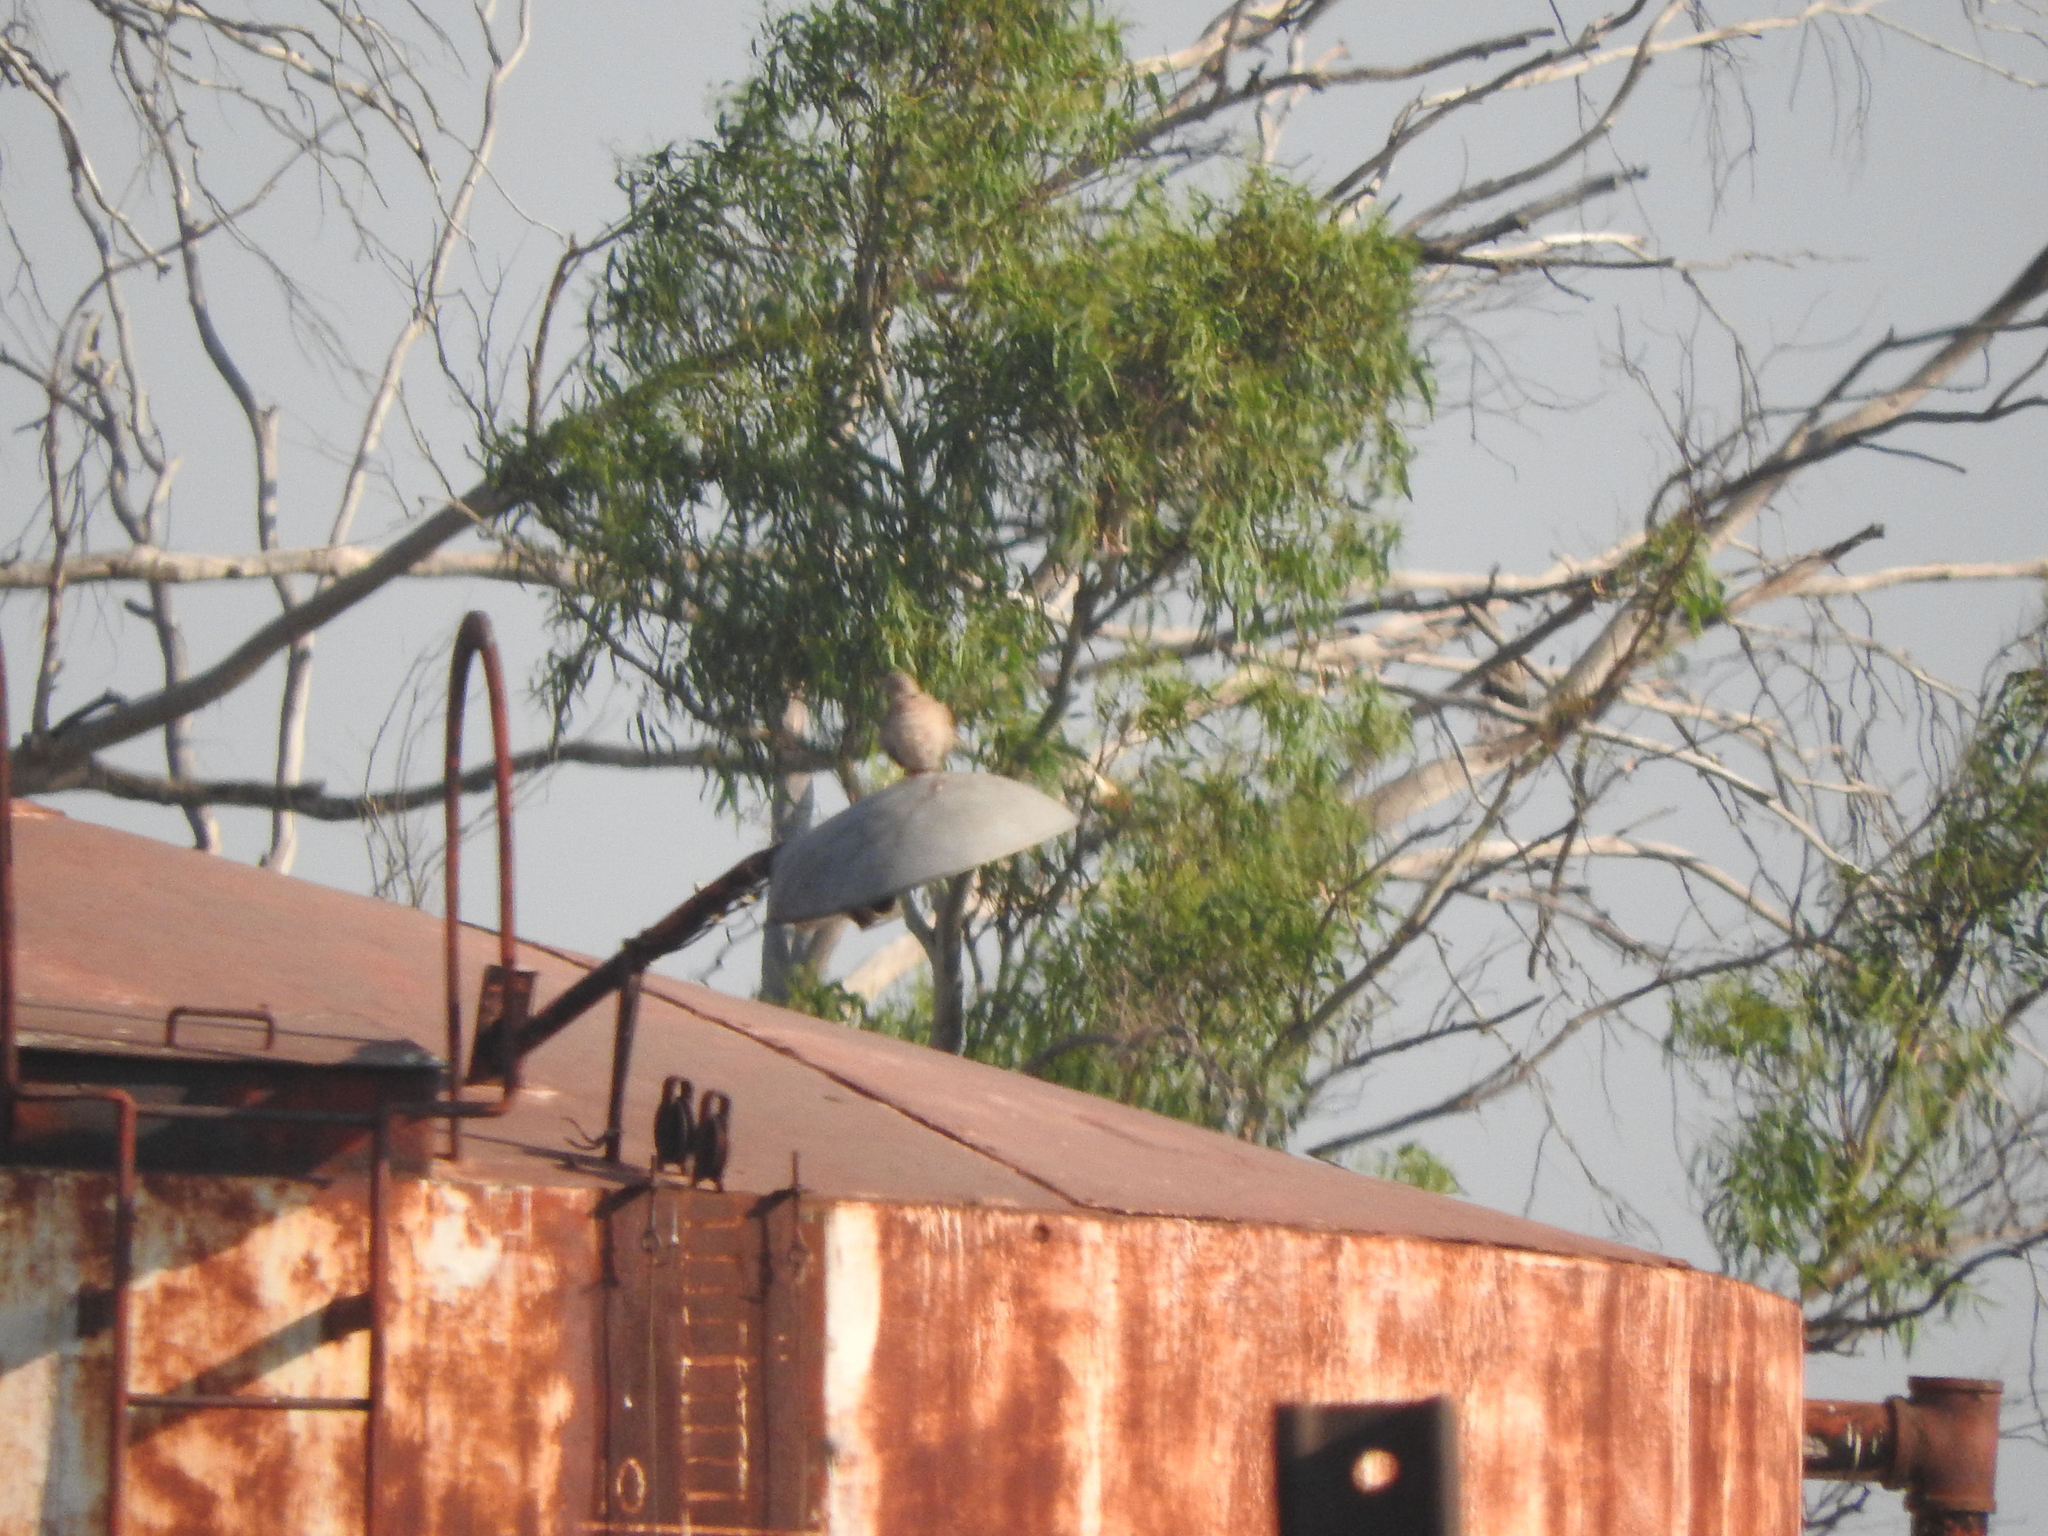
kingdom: Animalia
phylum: Chordata
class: Aves
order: Columbiformes
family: Columbidae
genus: Streptopelia
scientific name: Streptopelia decaocto
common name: Eurasian collared dove
